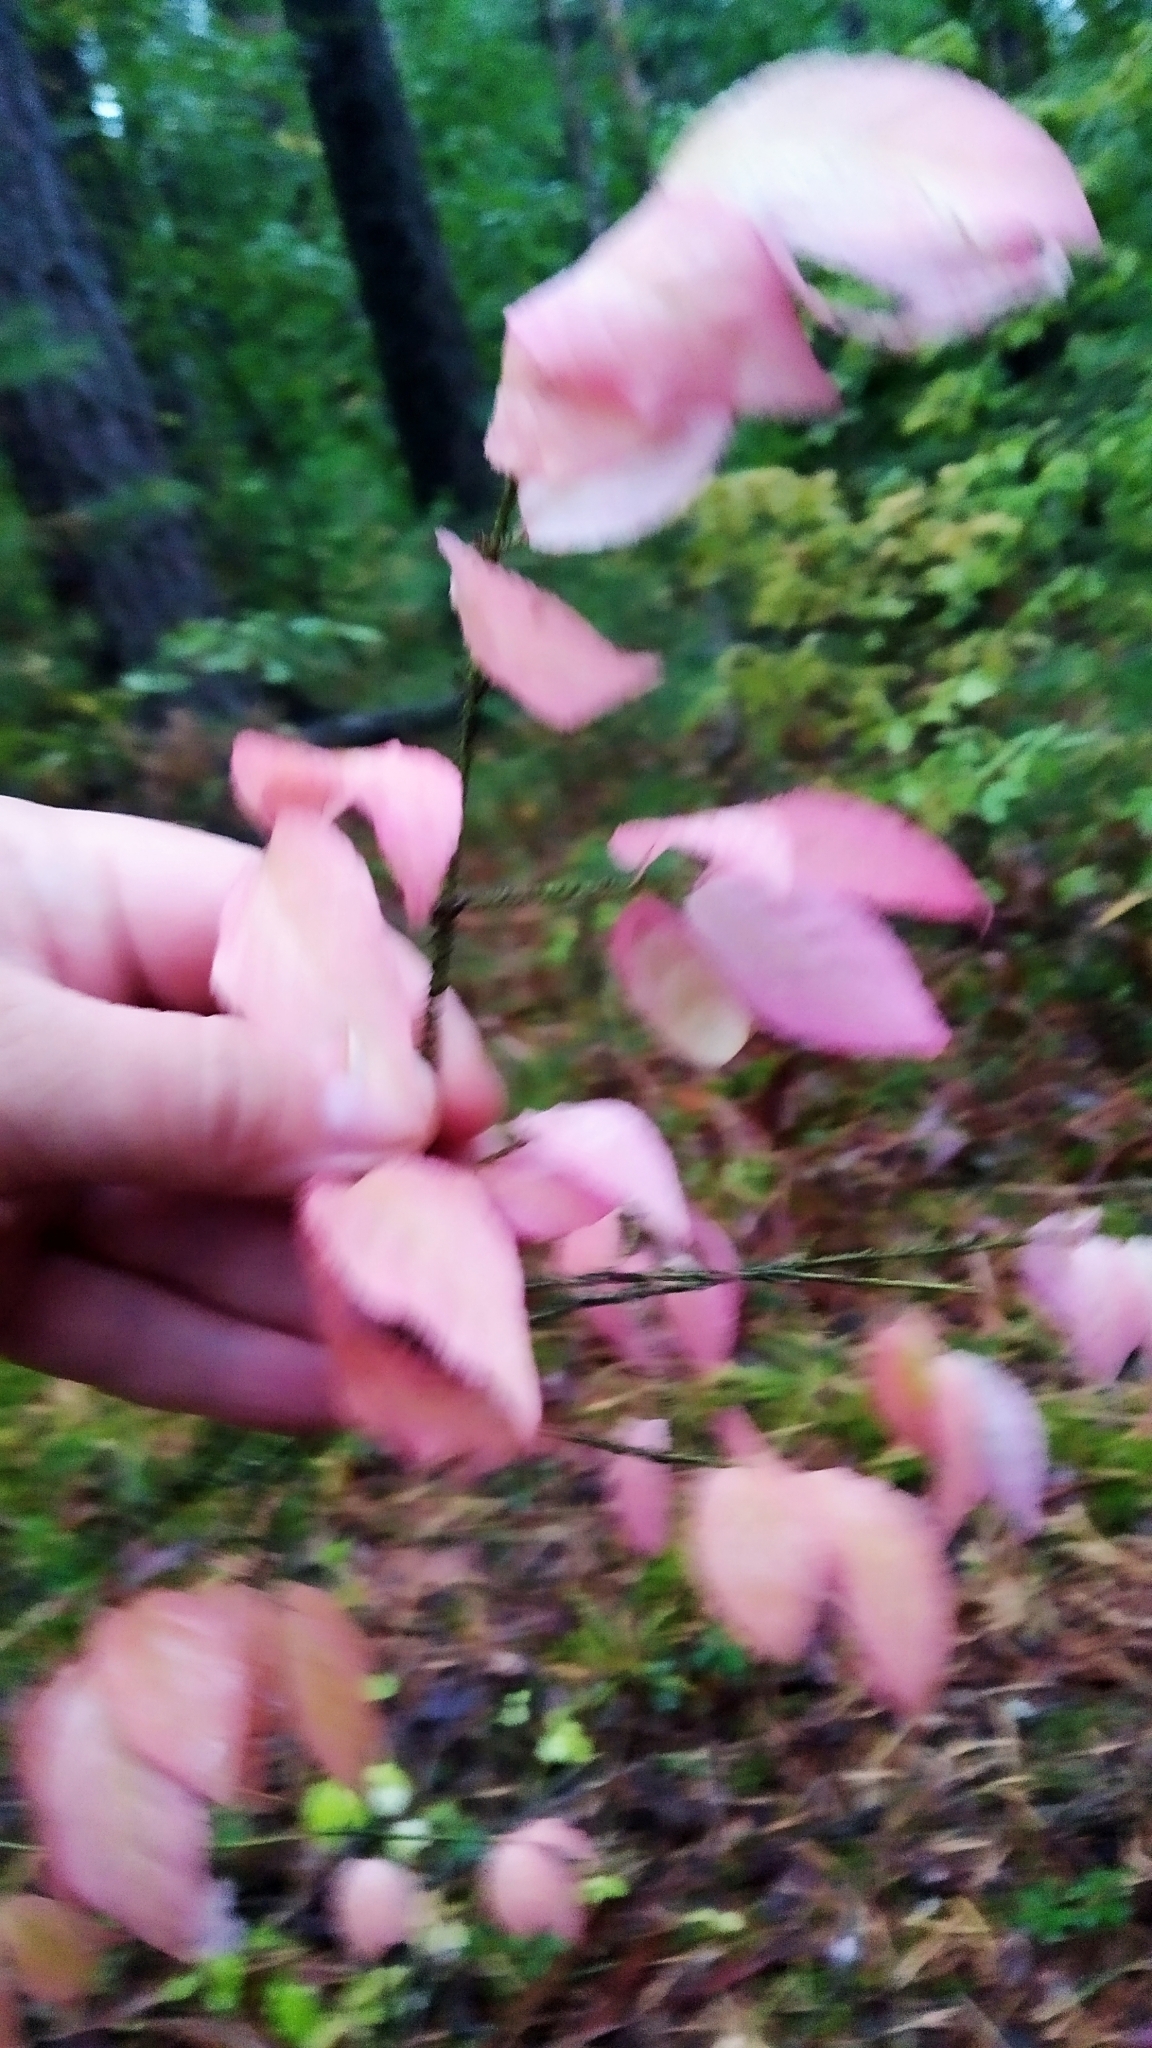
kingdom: Plantae
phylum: Tracheophyta
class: Magnoliopsida
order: Celastrales
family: Celastraceae
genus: Euonymus
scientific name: Euonymus verrucosus
